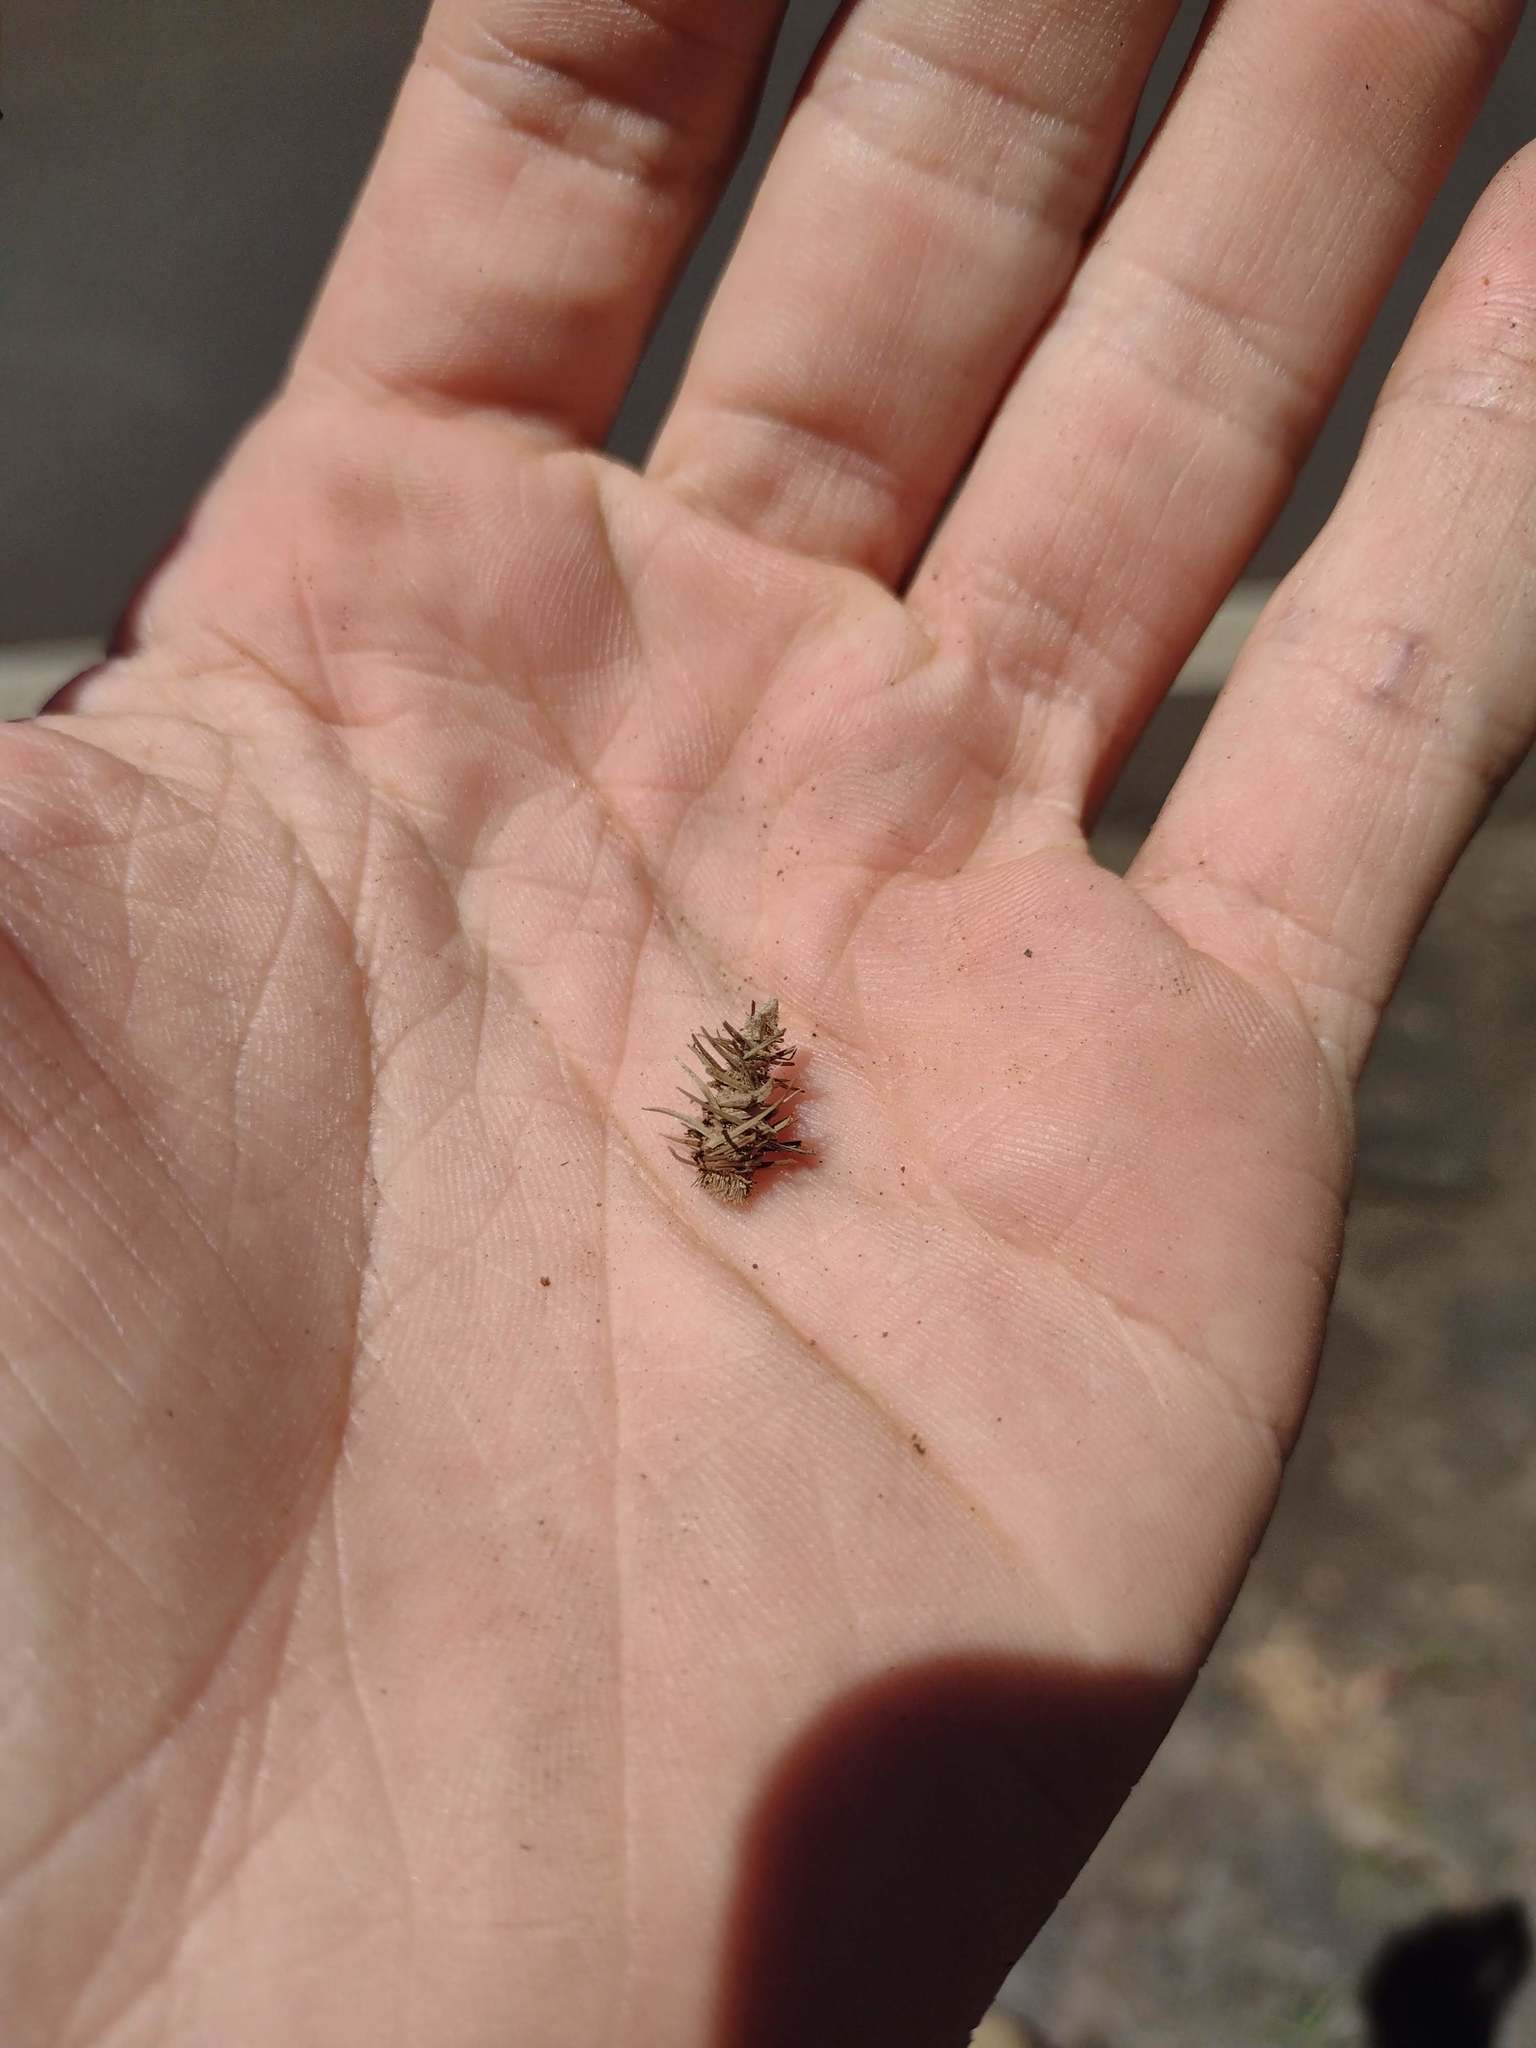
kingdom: Animalia
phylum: Arthropoda
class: Insecta
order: Lepidoptera
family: Psychidae
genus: Brachycyttarus
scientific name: Brachycyttarus griseus
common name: Grass bagworm
